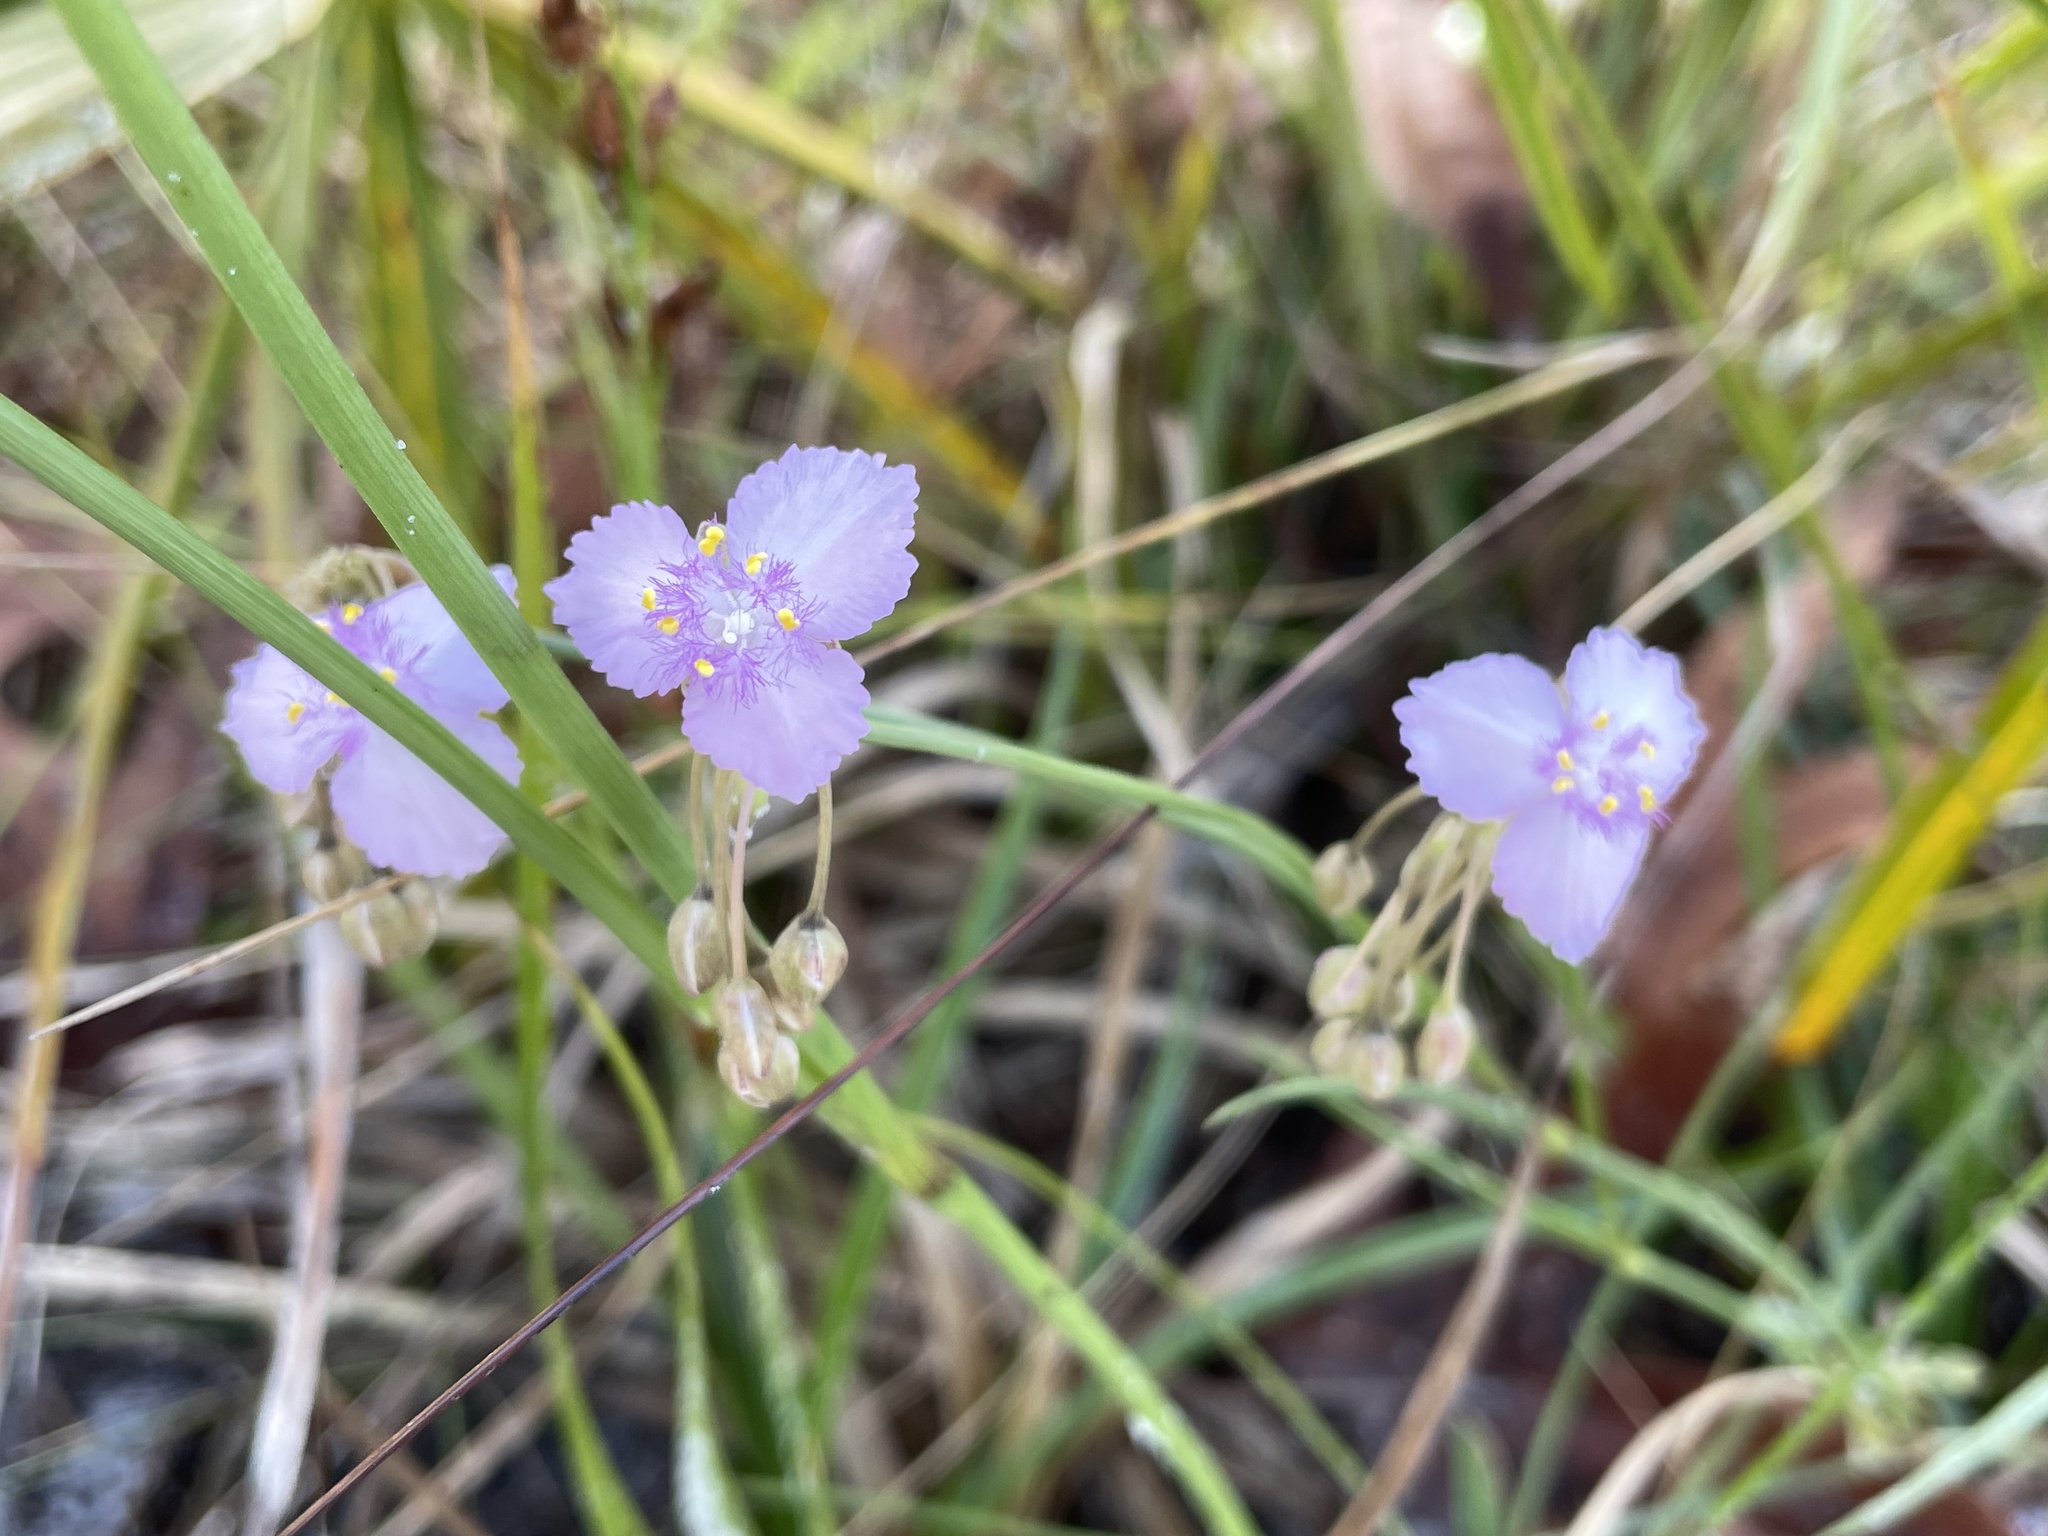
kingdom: Plantae
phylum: Tracheophyta
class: Liliopsida
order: Commelinales
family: Commelinaceae
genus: Callisia
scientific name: Callisia ornata
